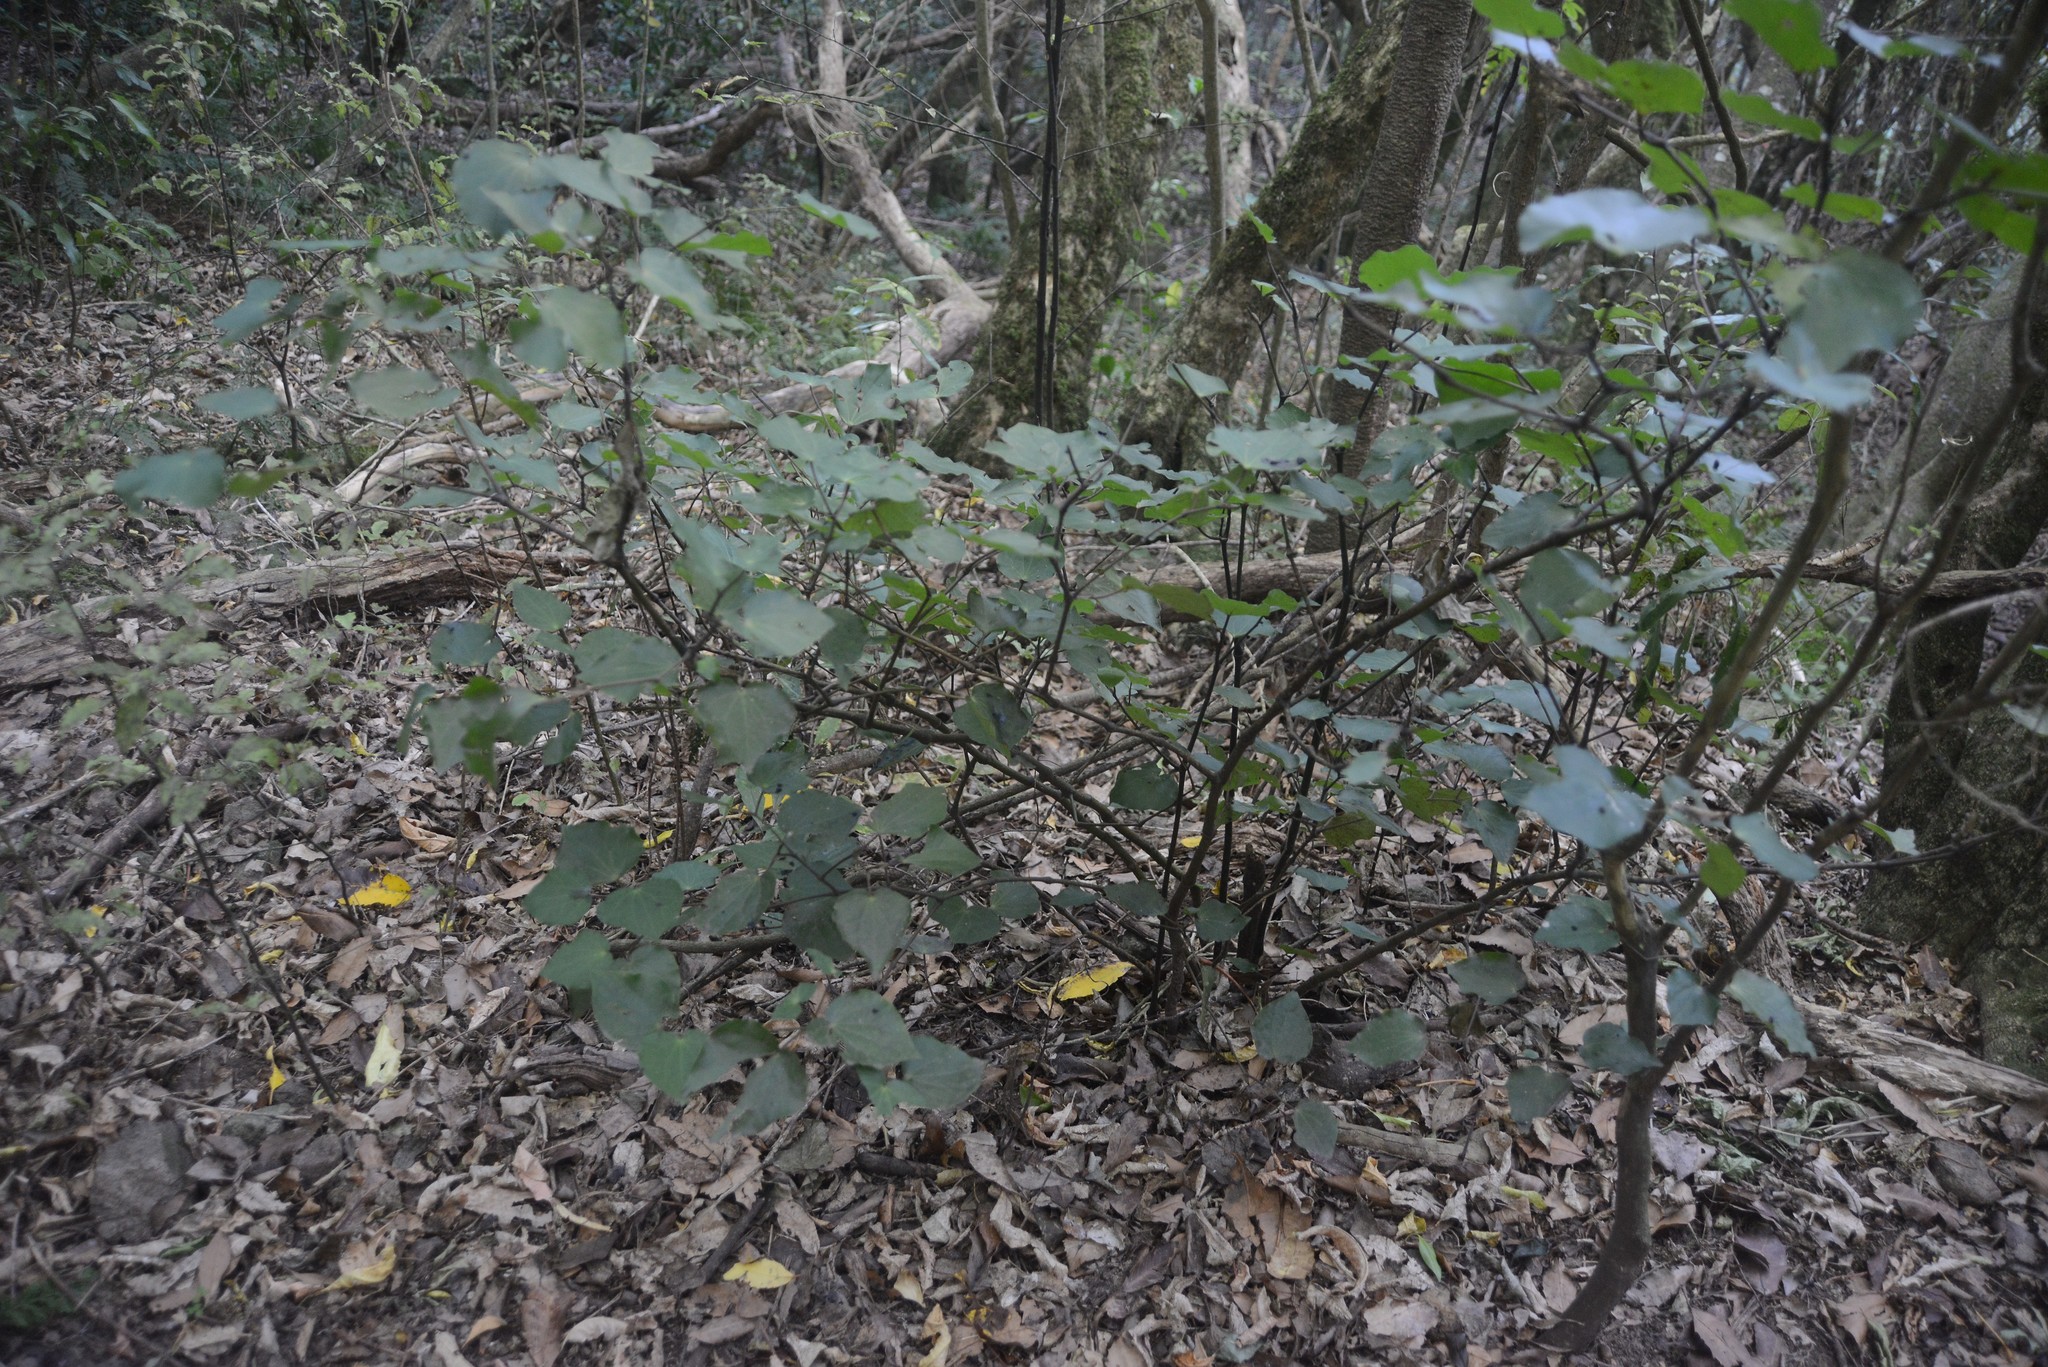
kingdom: Plantae
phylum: Tracheophyta
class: Magnoliopsida
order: Piperales
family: Piperaceae
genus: Macropiper
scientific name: Macropiper excelsum
